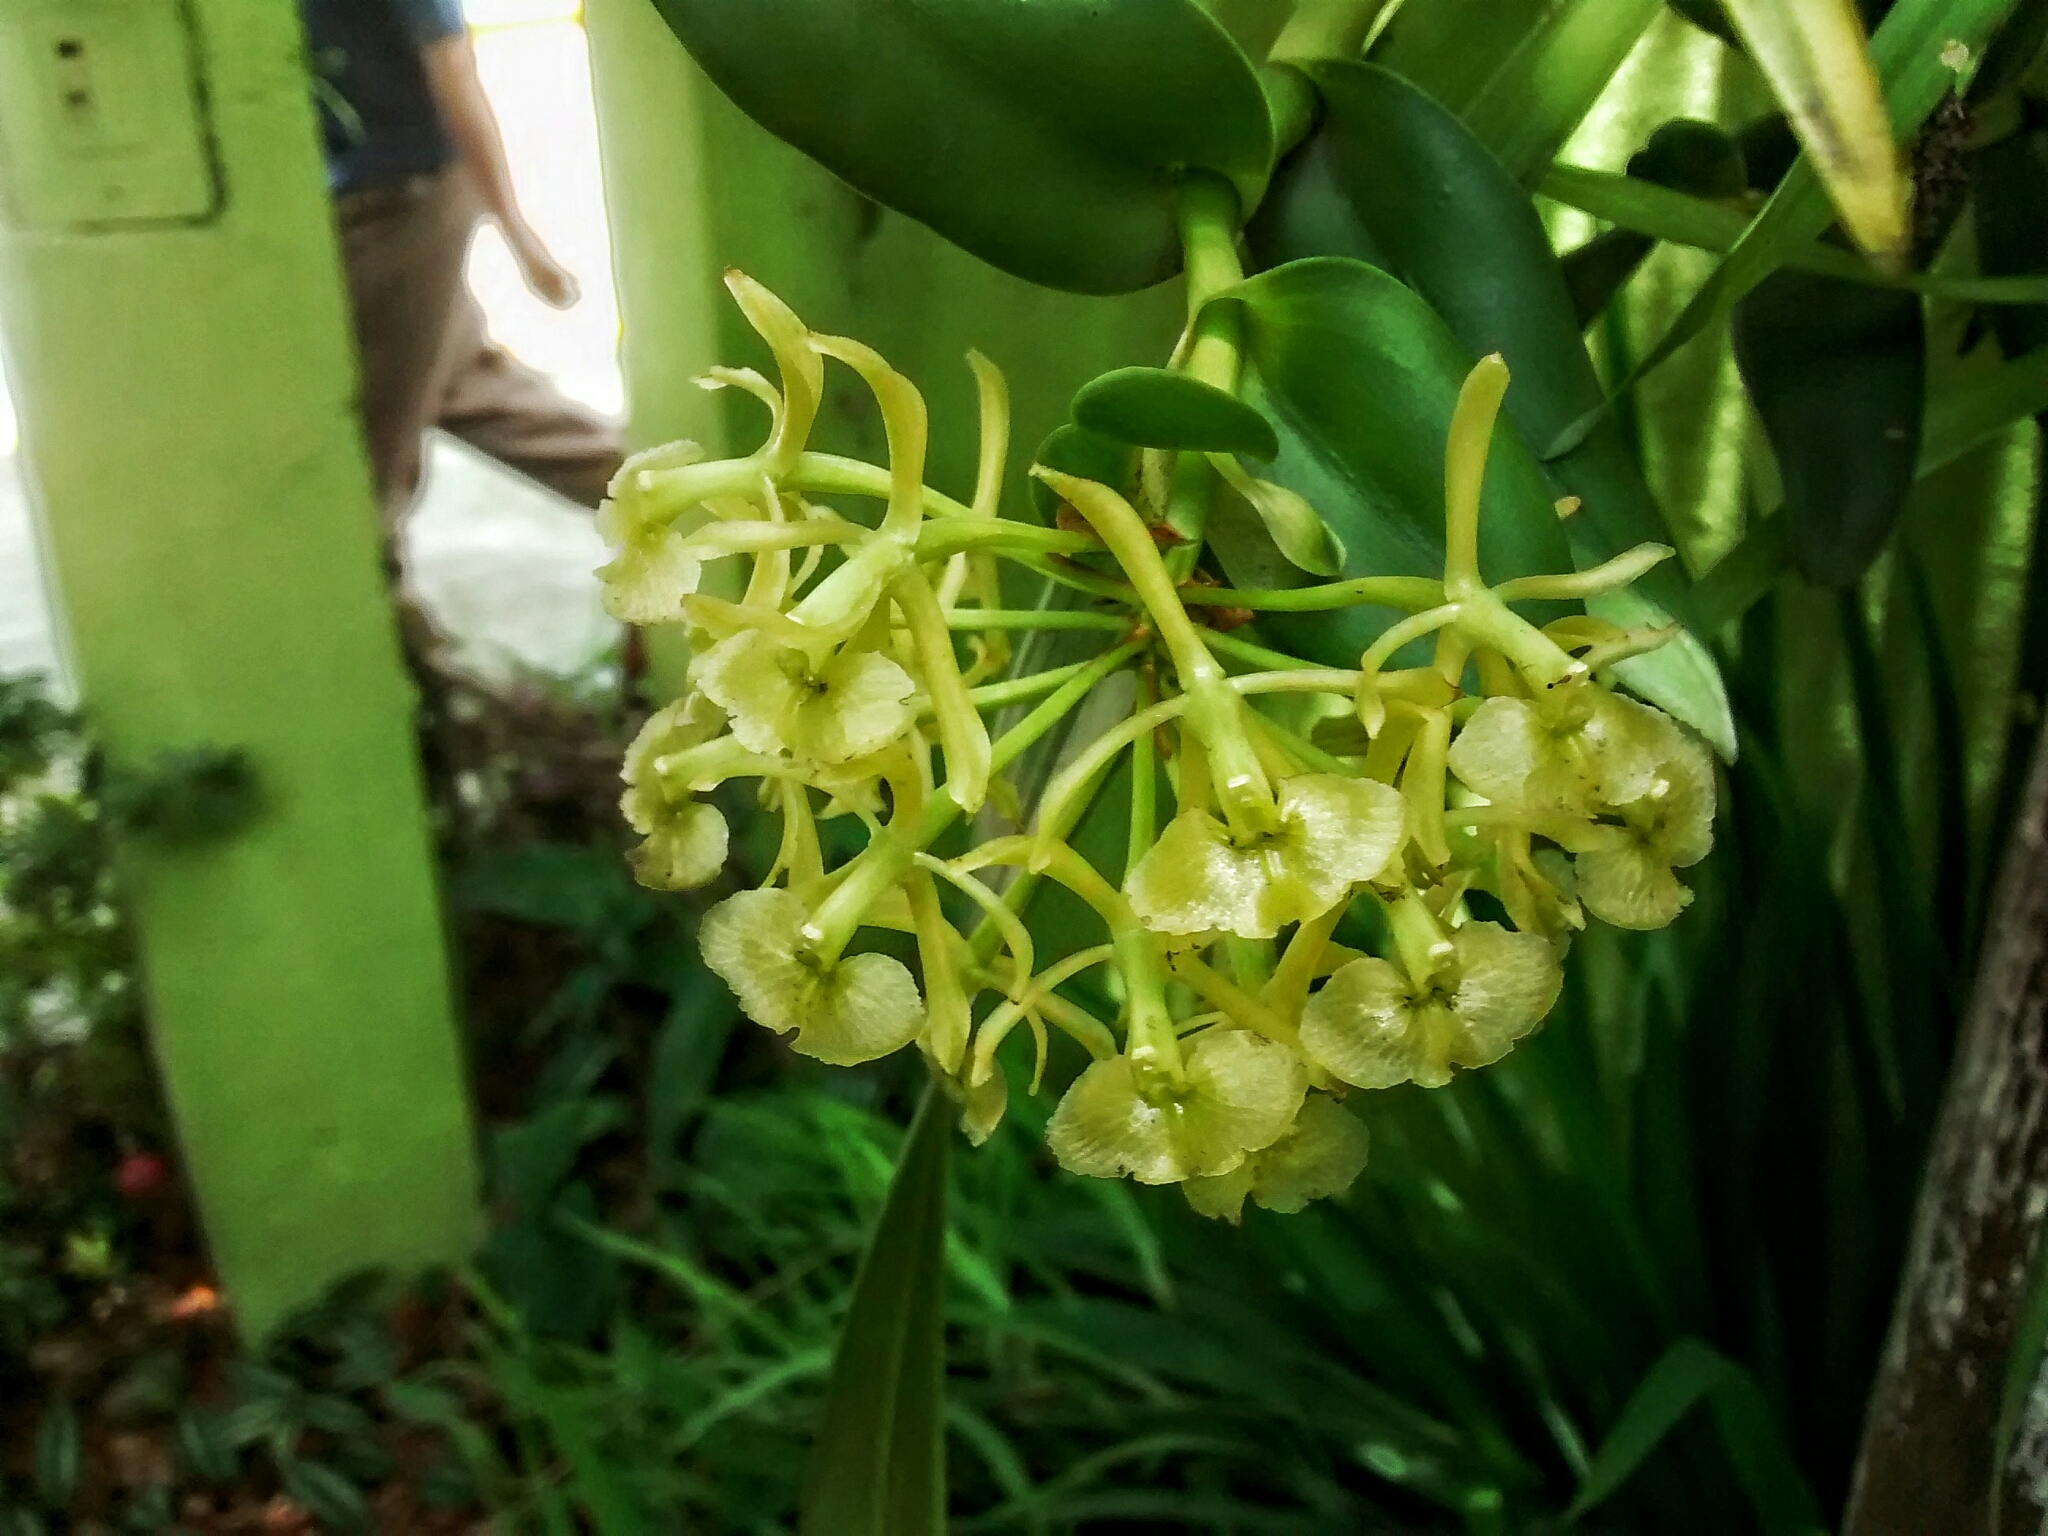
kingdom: Plantae
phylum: Tracheophyta
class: Liliopsida
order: Asparagales
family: Orchidaceae
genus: Epidendrum
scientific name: Epidendrum melistagum
